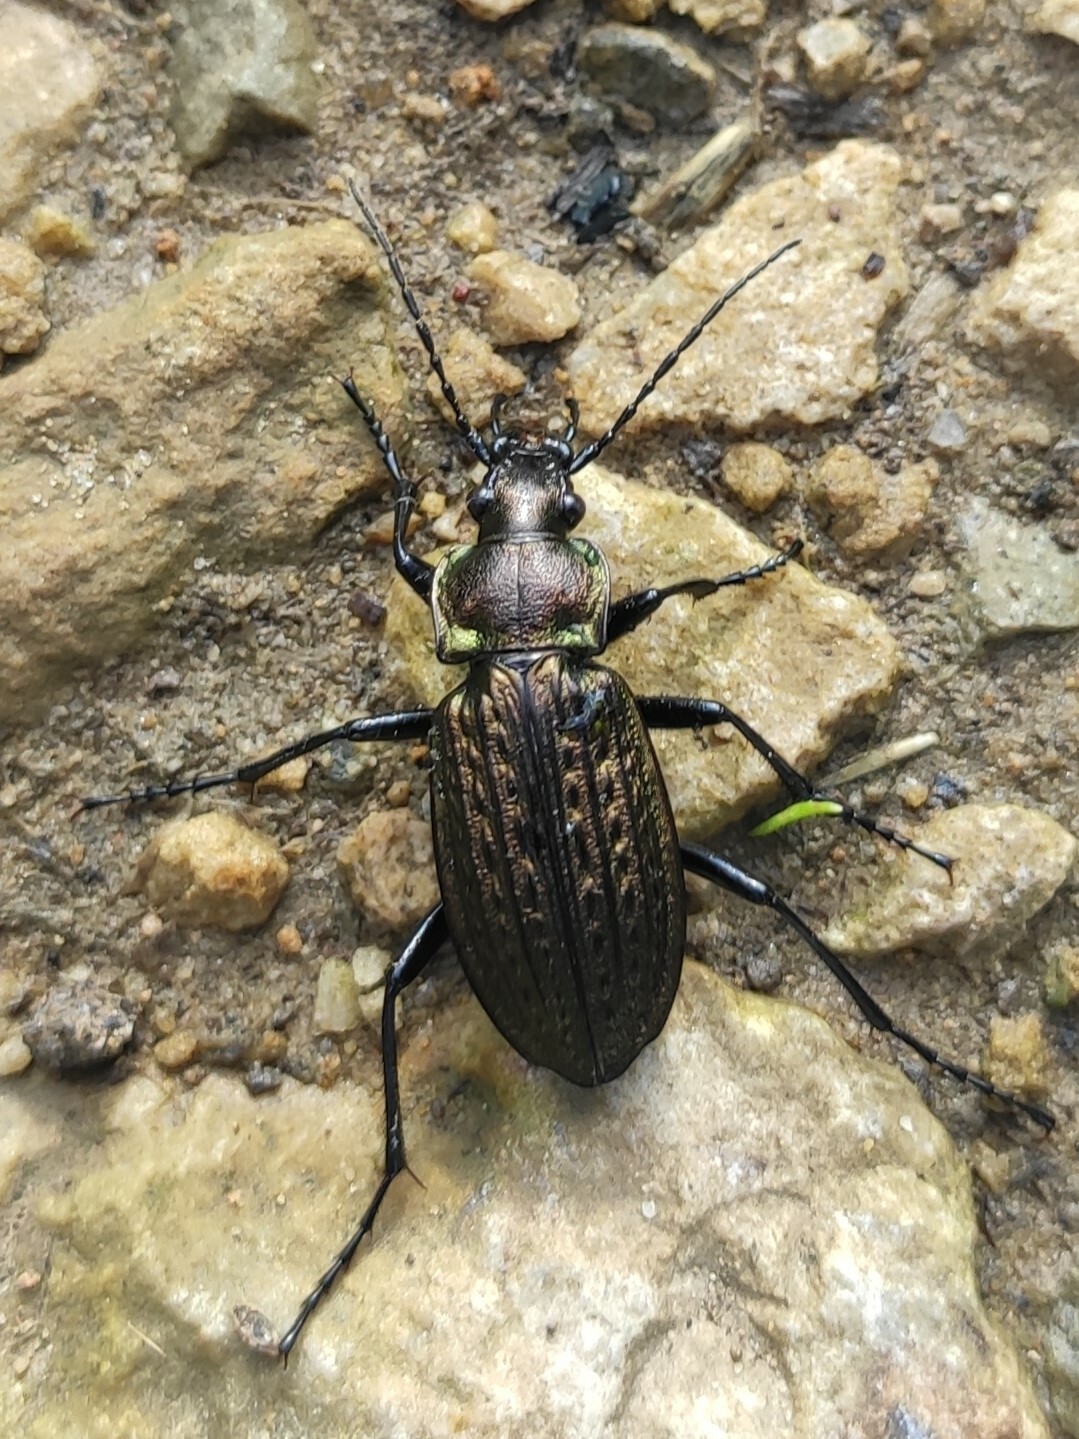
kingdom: Animalia
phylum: Arthropoda
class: Insecta
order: Coleoptera
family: Carabidae
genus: Carabus
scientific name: Carabus granulatus
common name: Granulate ground beetle
